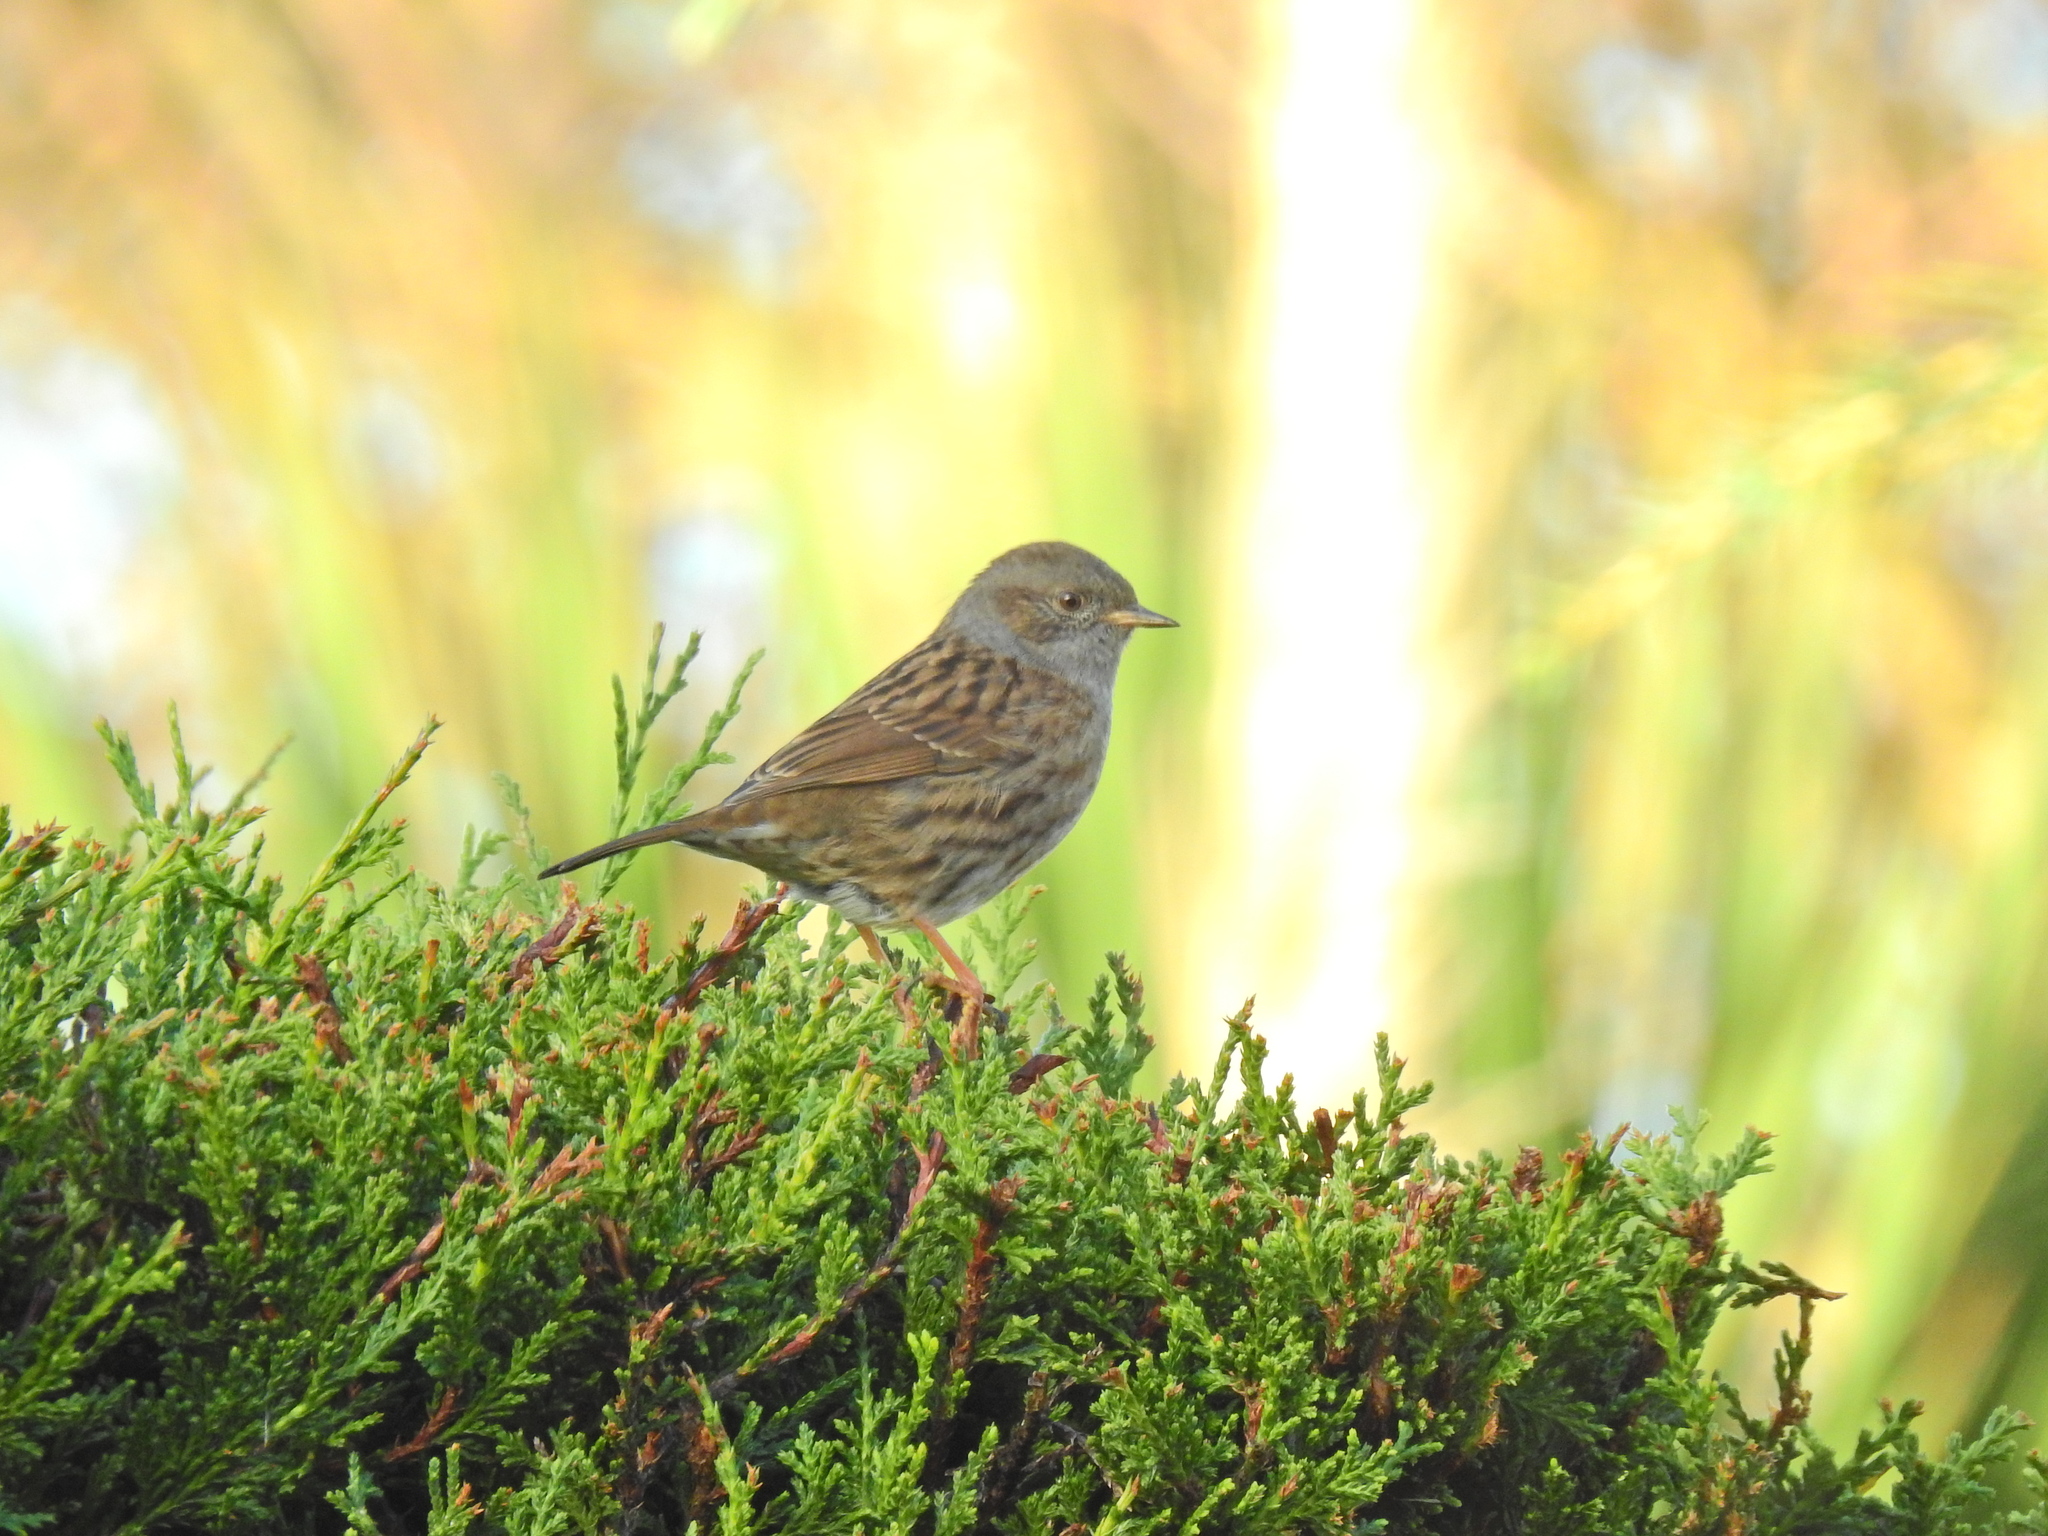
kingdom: Animalia
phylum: Chordata
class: Aves
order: Passeriformes
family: Prunellidae
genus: Prunella
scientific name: Prunella modularis
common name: Dunnock
